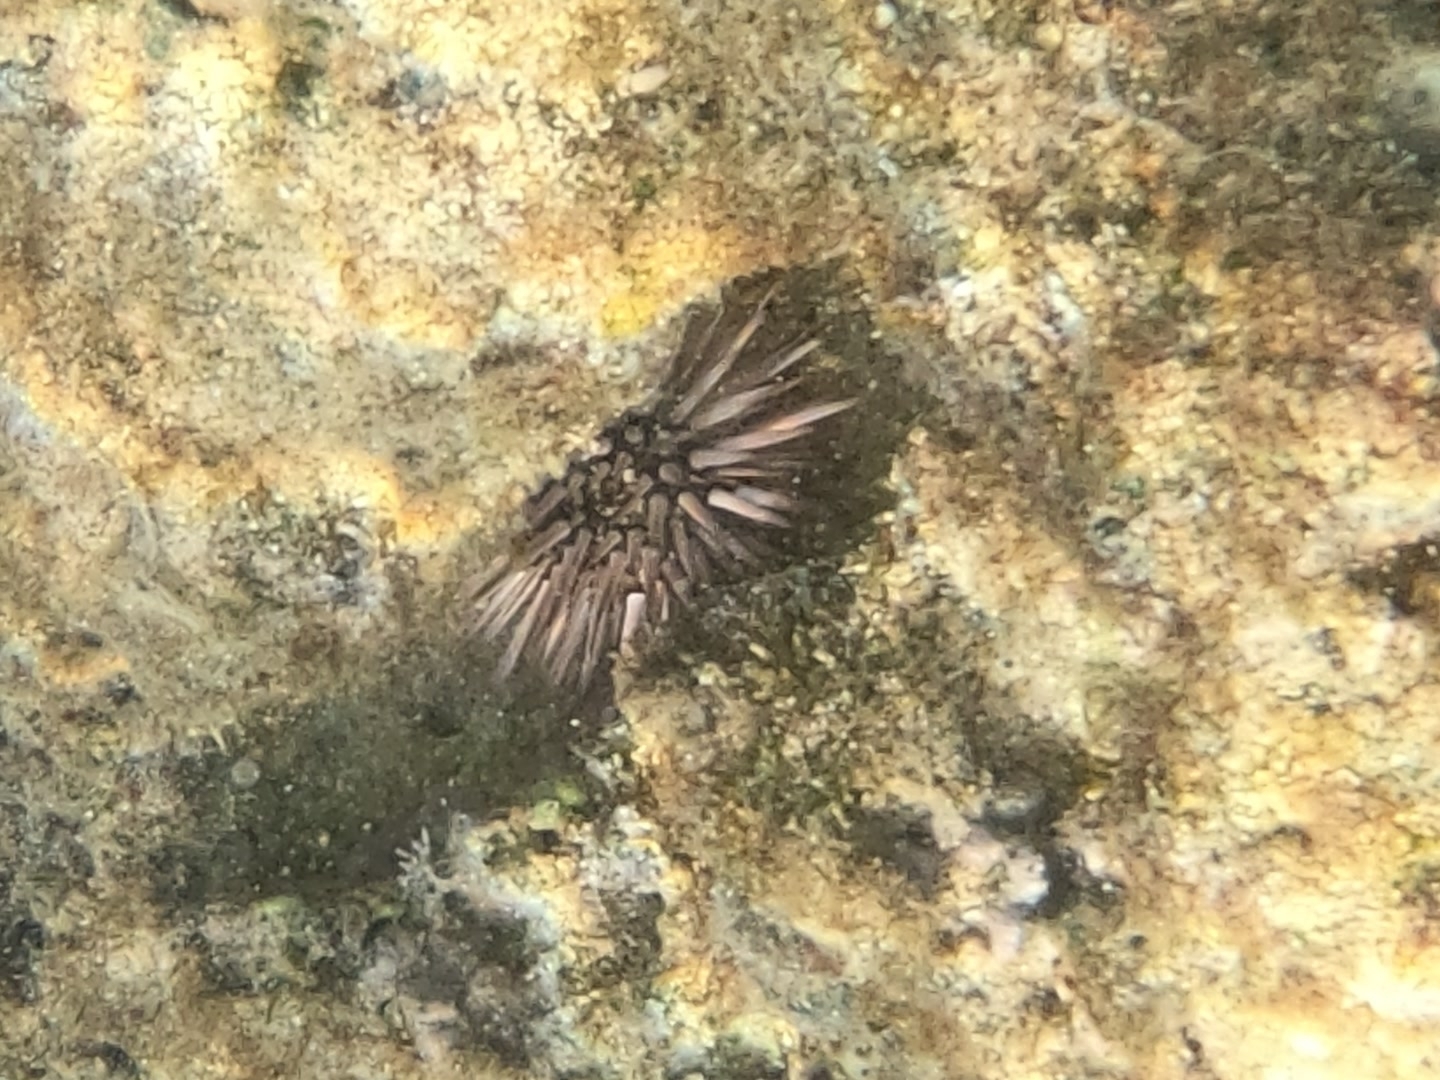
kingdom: Animalia
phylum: Echinodermata
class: Echinoidea
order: Camarodonta
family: Echinometridae
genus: Echinometra
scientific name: Echinometra mathaei
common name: Rock-boring urchin
